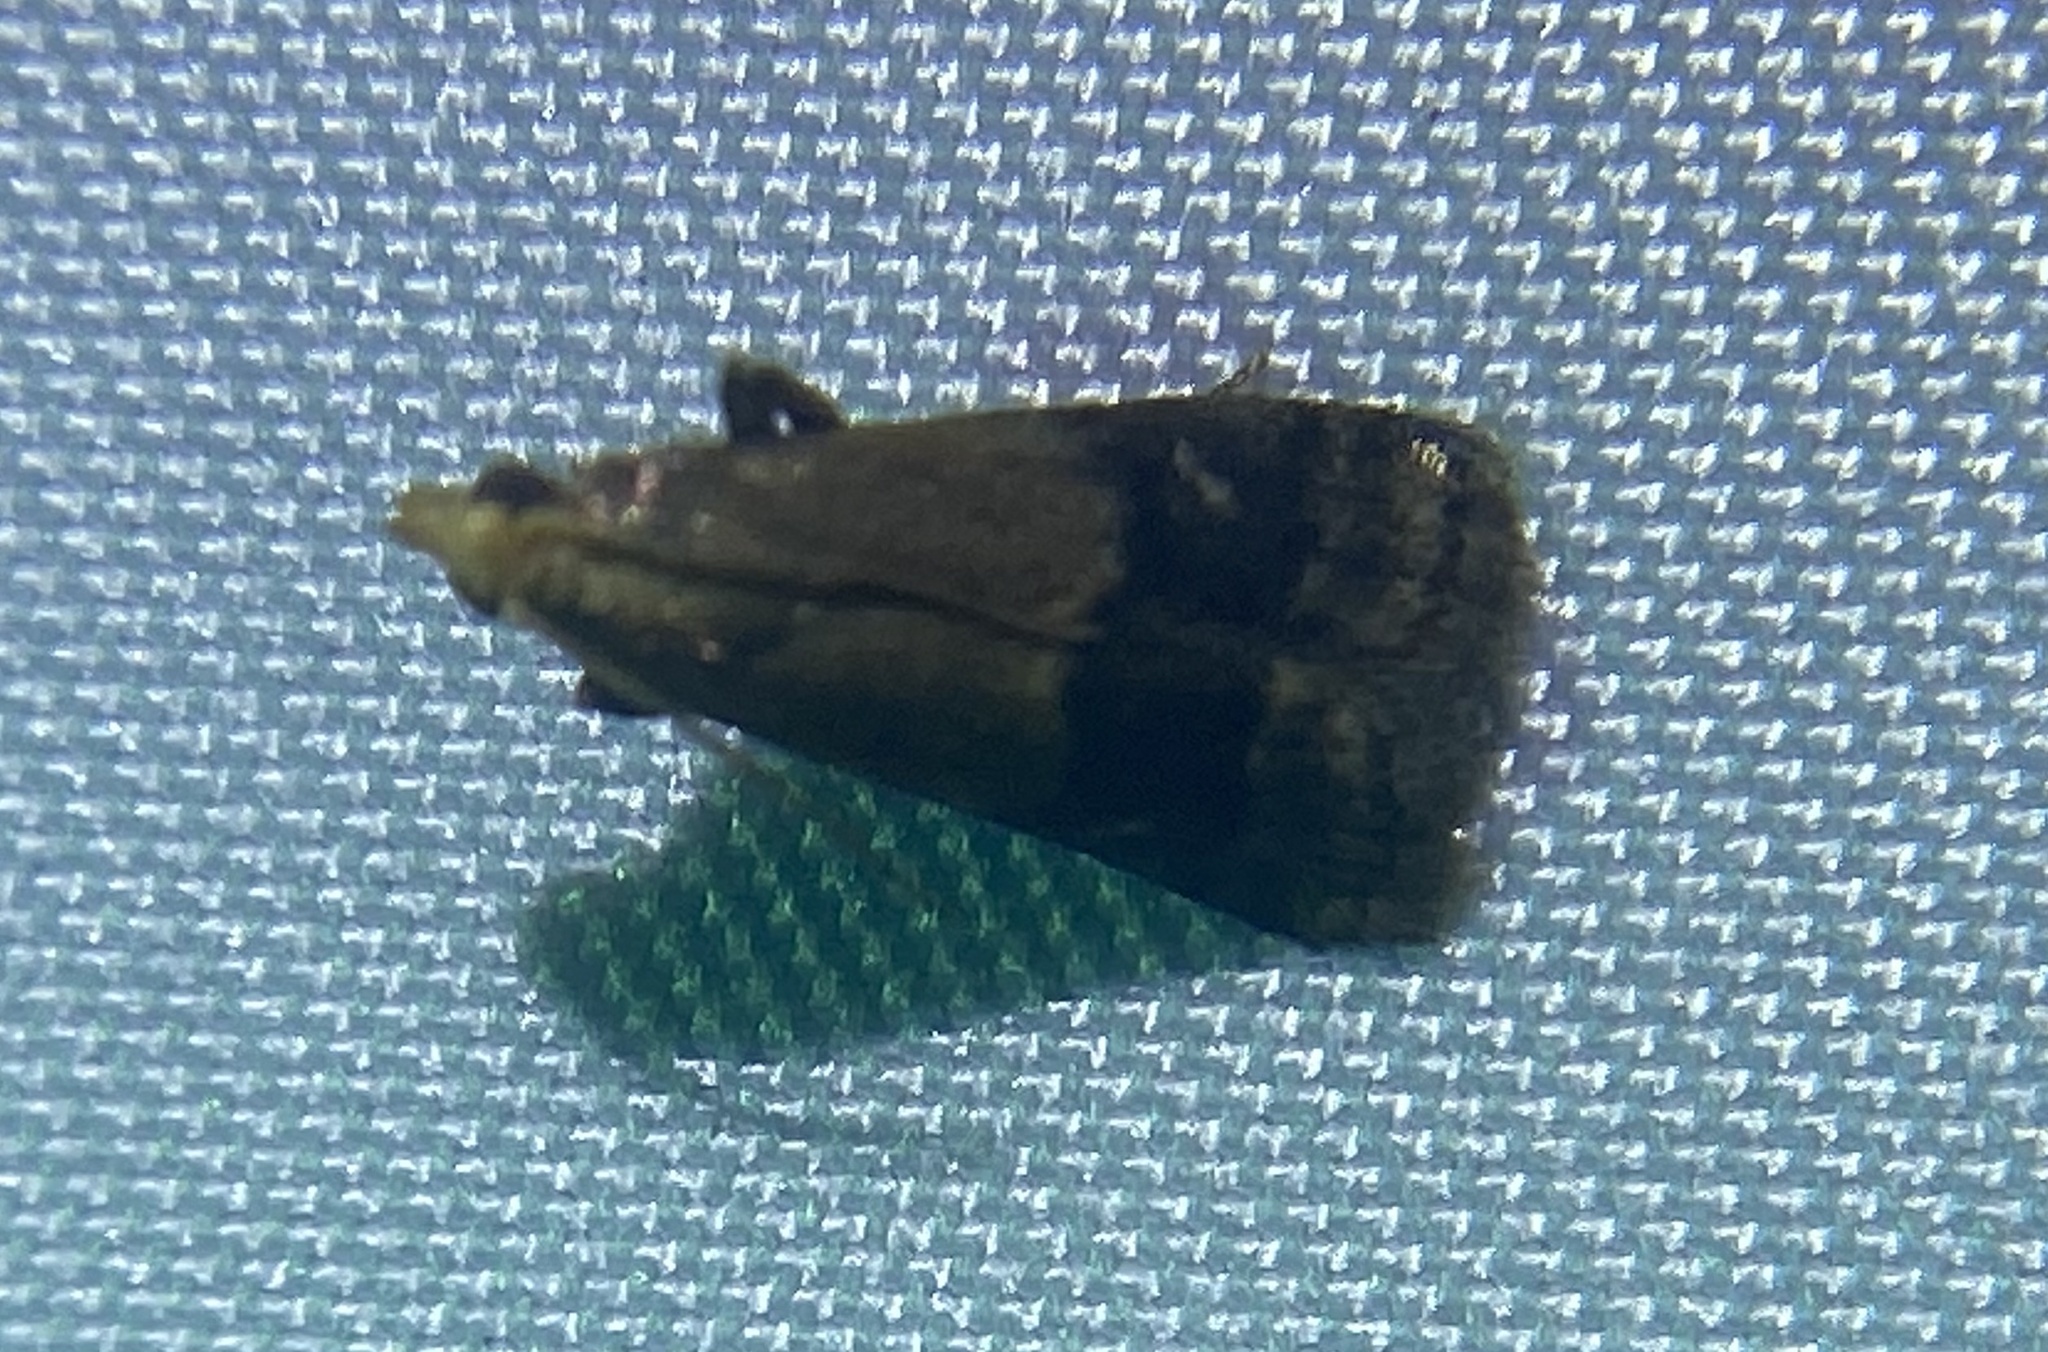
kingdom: Animalia
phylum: Arthropoda
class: Insecta
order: Lepidoptera
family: Pyralidae
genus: Eulogia
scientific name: Eulogia ochrifrontella
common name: Broad-banded eulogia moth
